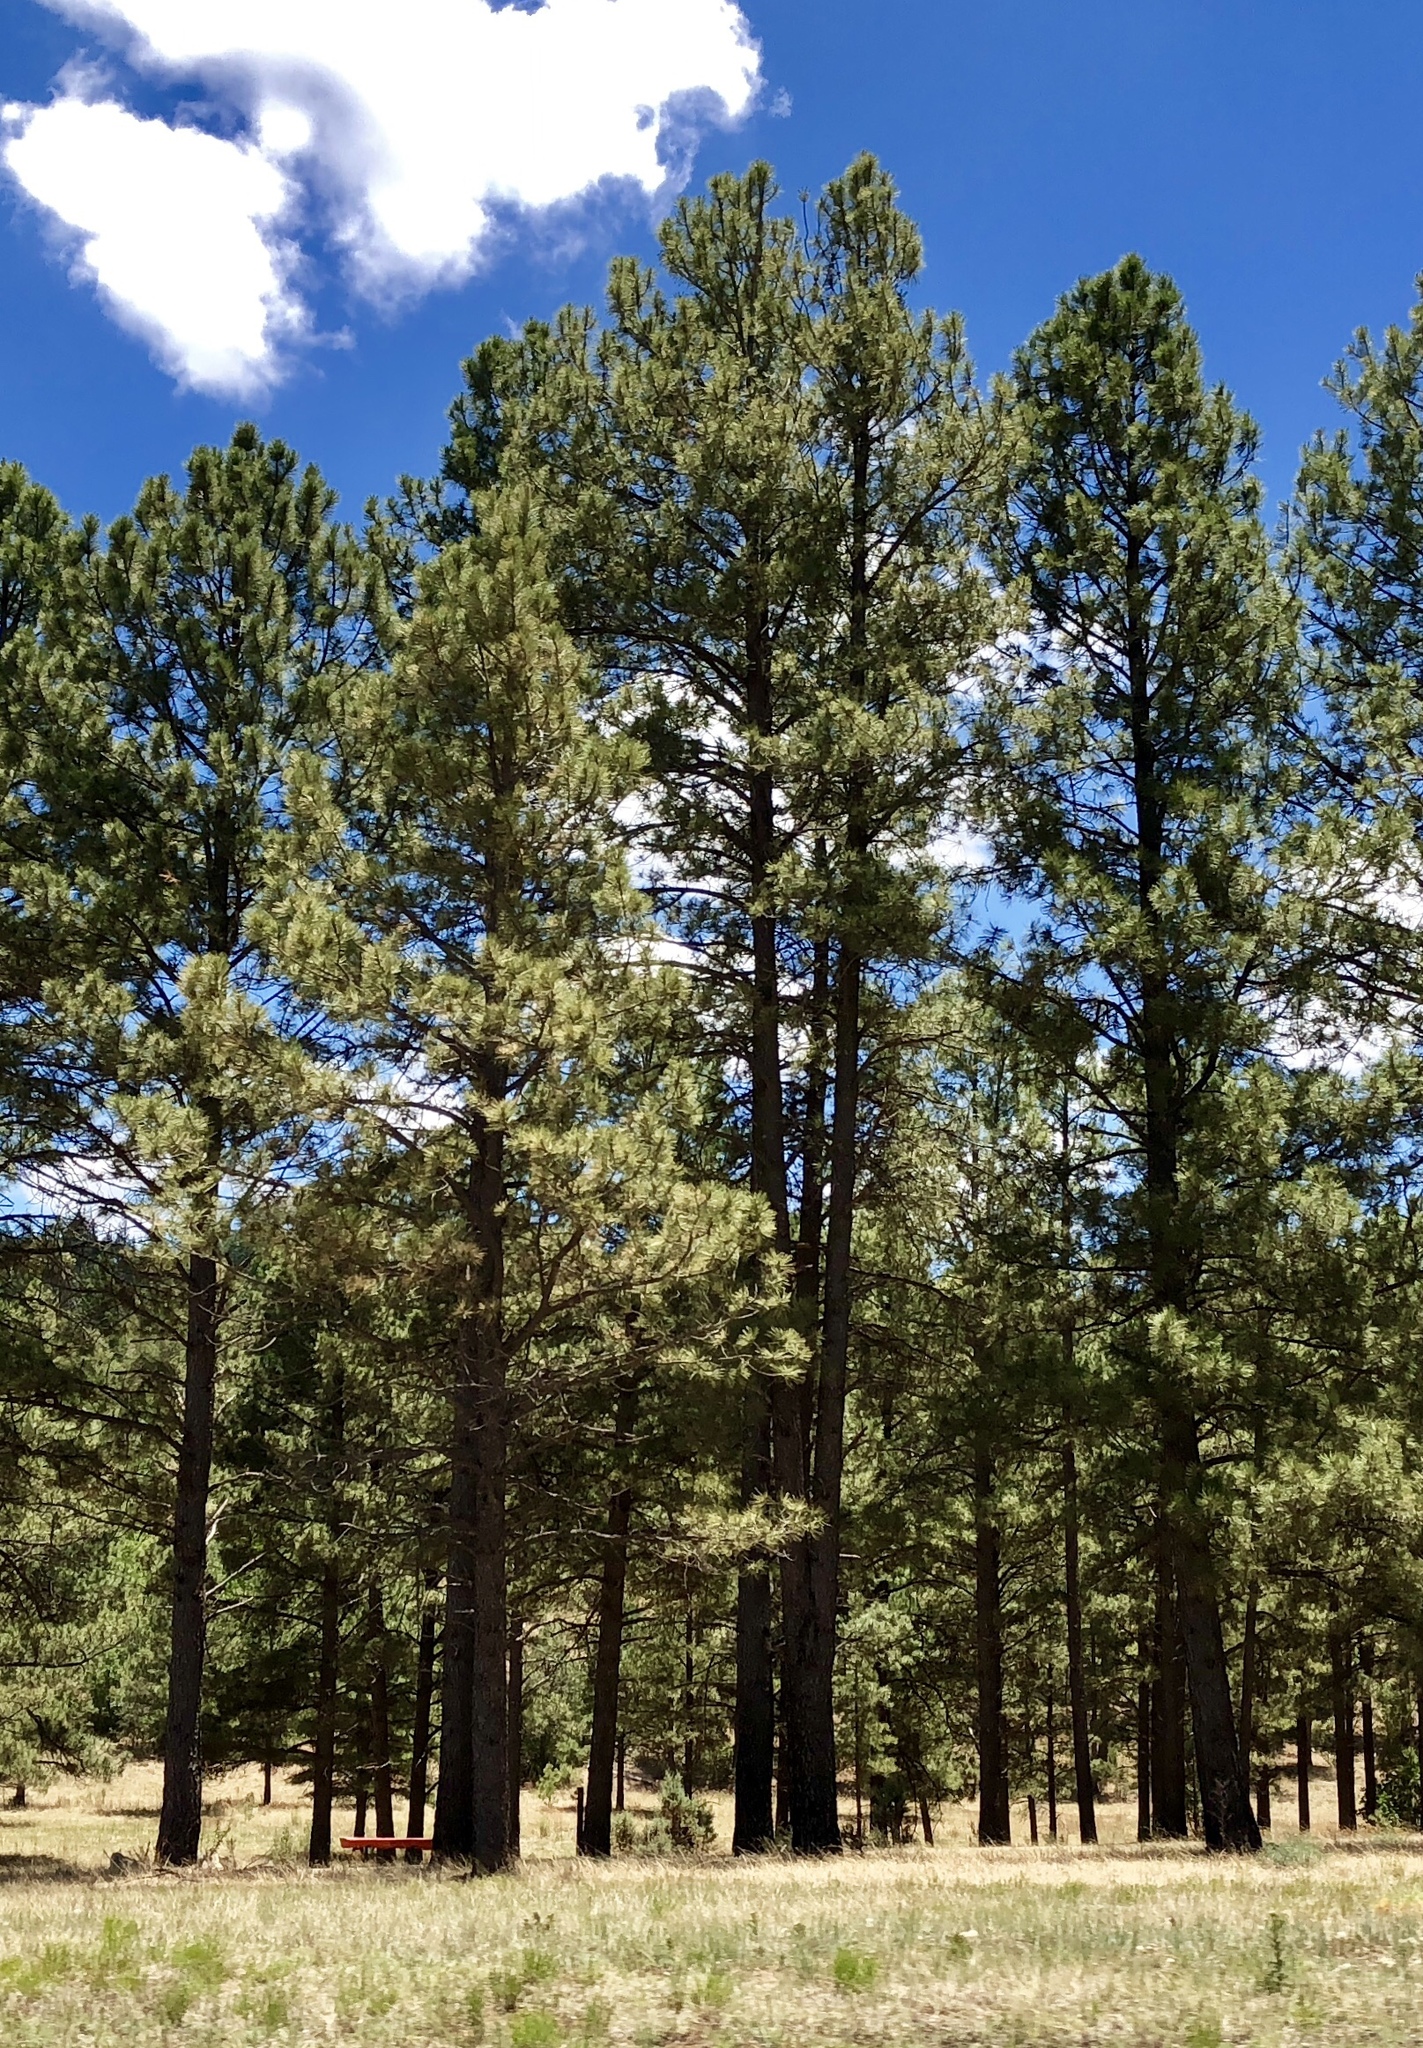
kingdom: Plantae
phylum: Tracheophyta
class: Pinopsida
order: Pinales
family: Pinaceae
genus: Pinus
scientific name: Pinus ponderosa
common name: Western yellow-pine
